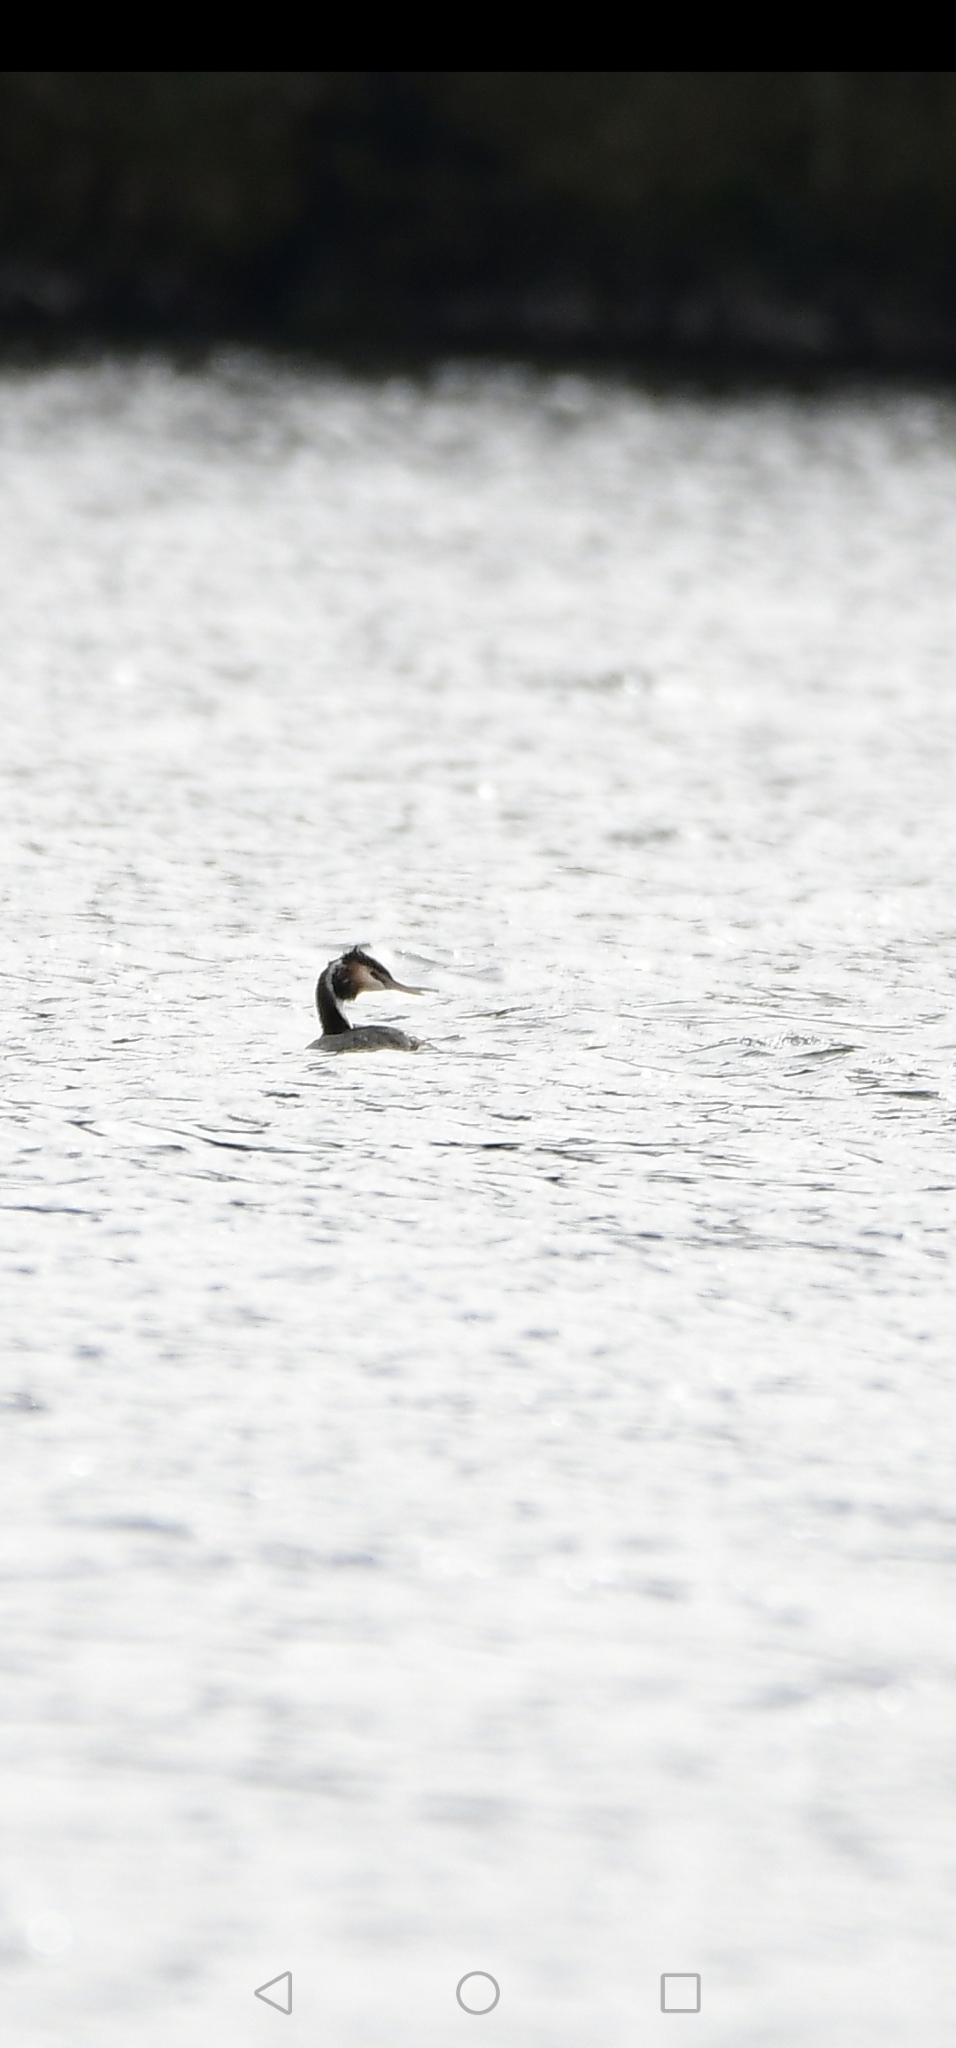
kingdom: Animalia
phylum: Chordata
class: Aves
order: Podicipediformes
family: Podicipedidae
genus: Podiceps
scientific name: Podiceps cristatus
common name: Great crested grebe
